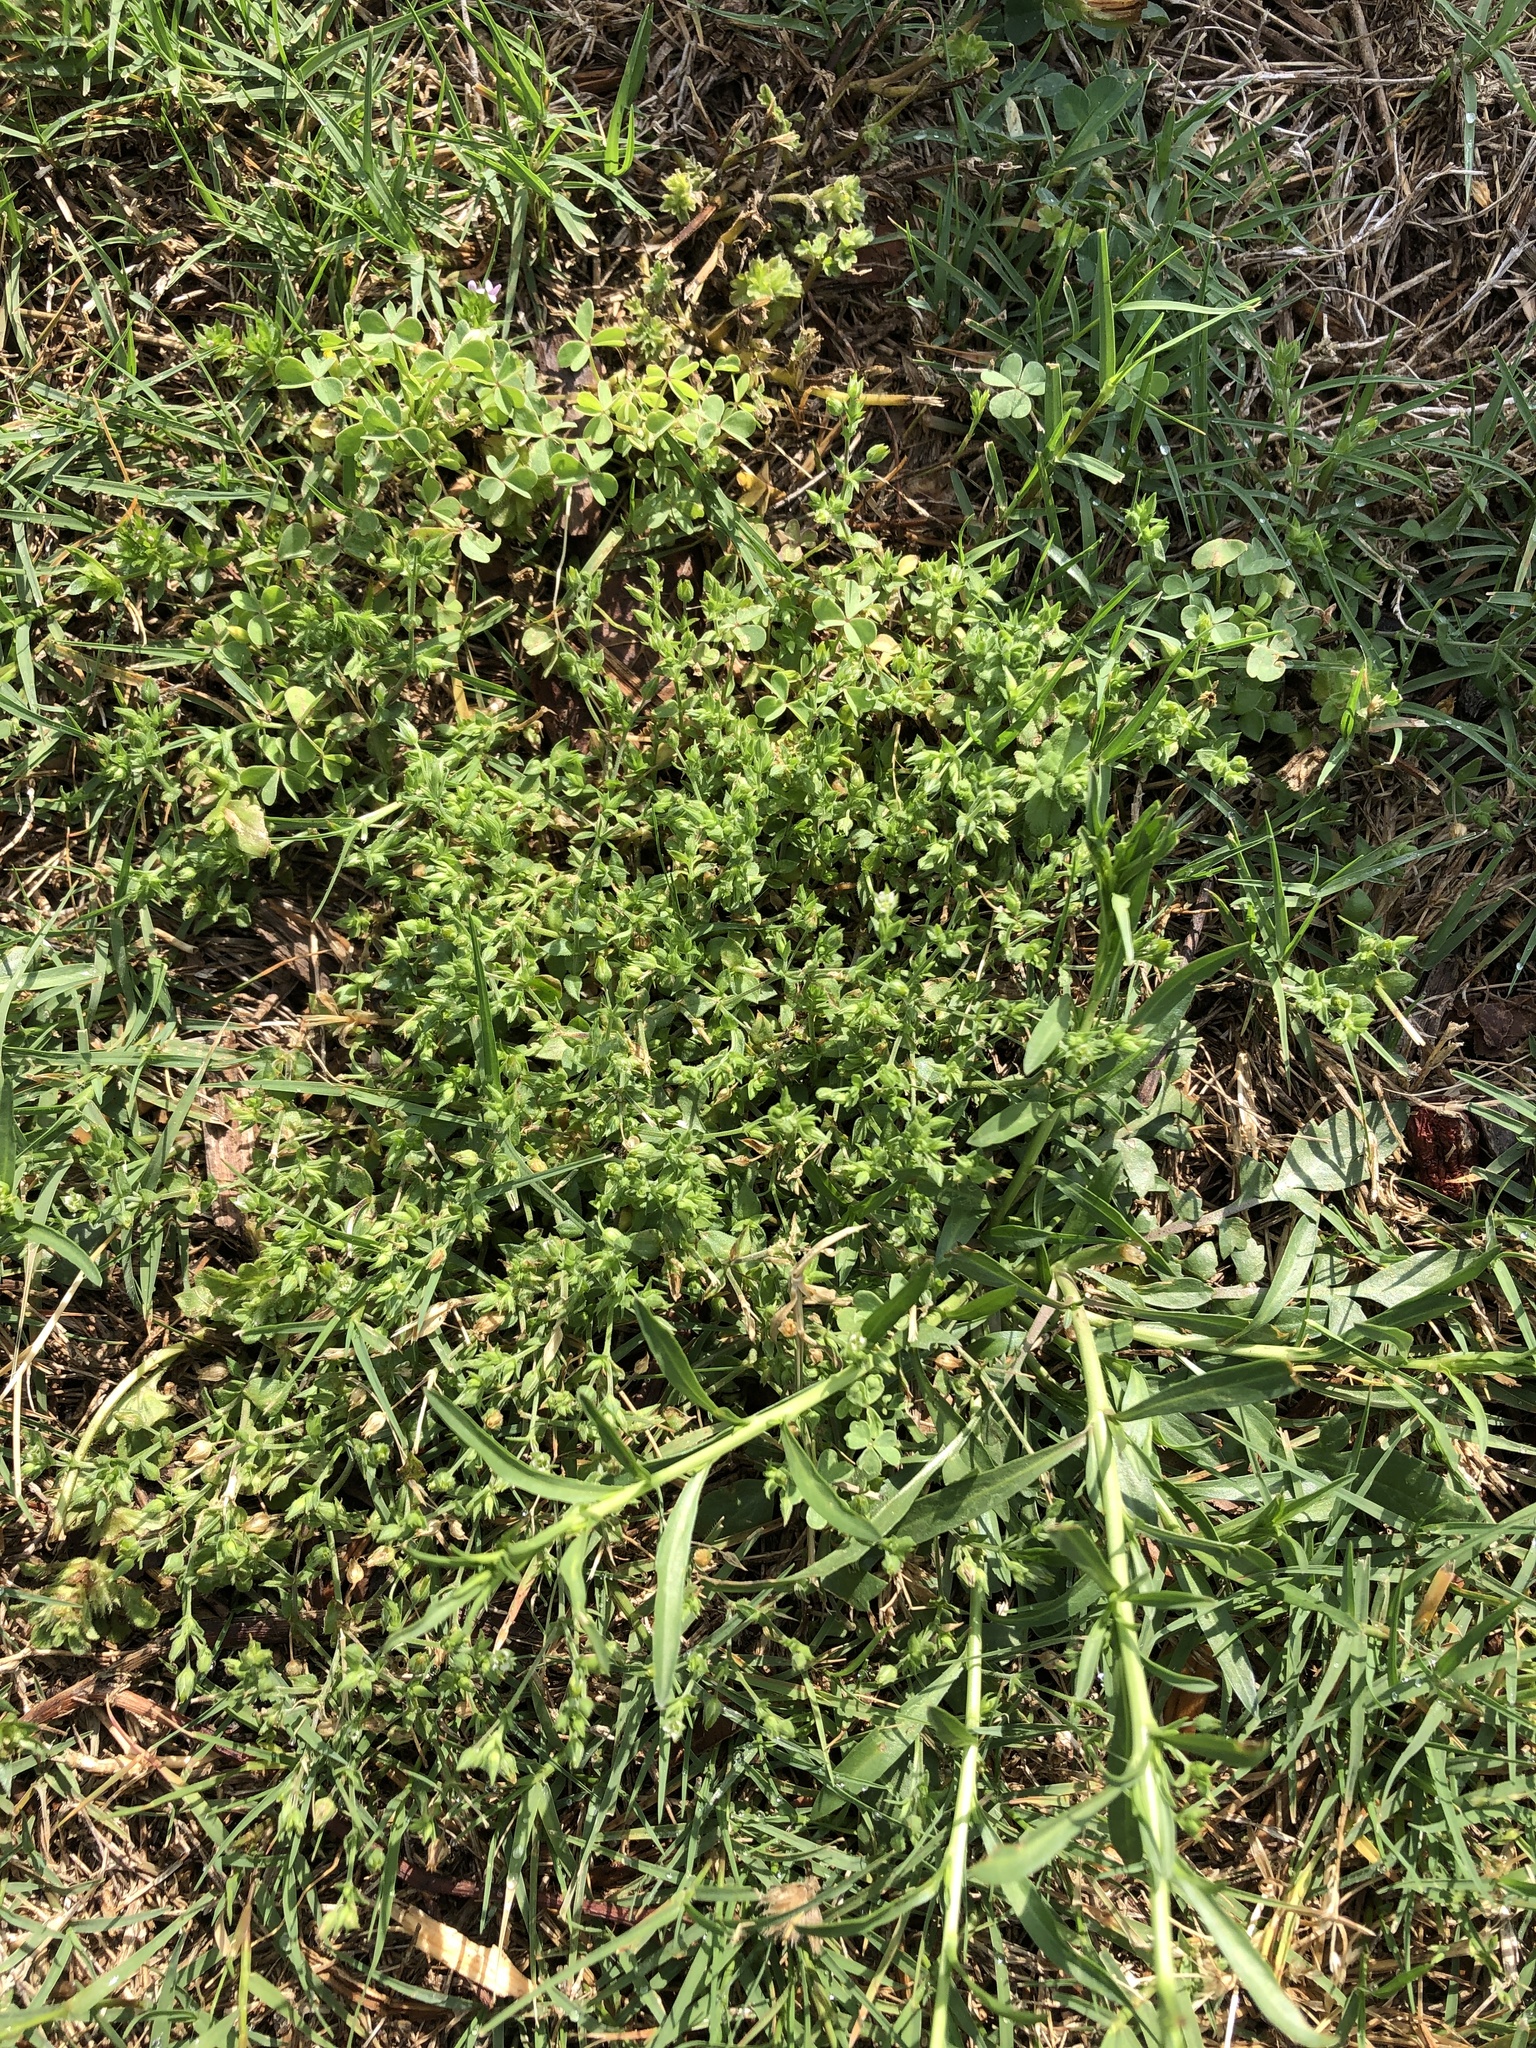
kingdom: Plantae
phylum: Tracheophyta
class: Magnoliopsida
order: Caryophyllales
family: Caryophyllaceae
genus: Arenaria
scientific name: Arenaria serpyllifolia
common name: Thyme-leaved sandwort
